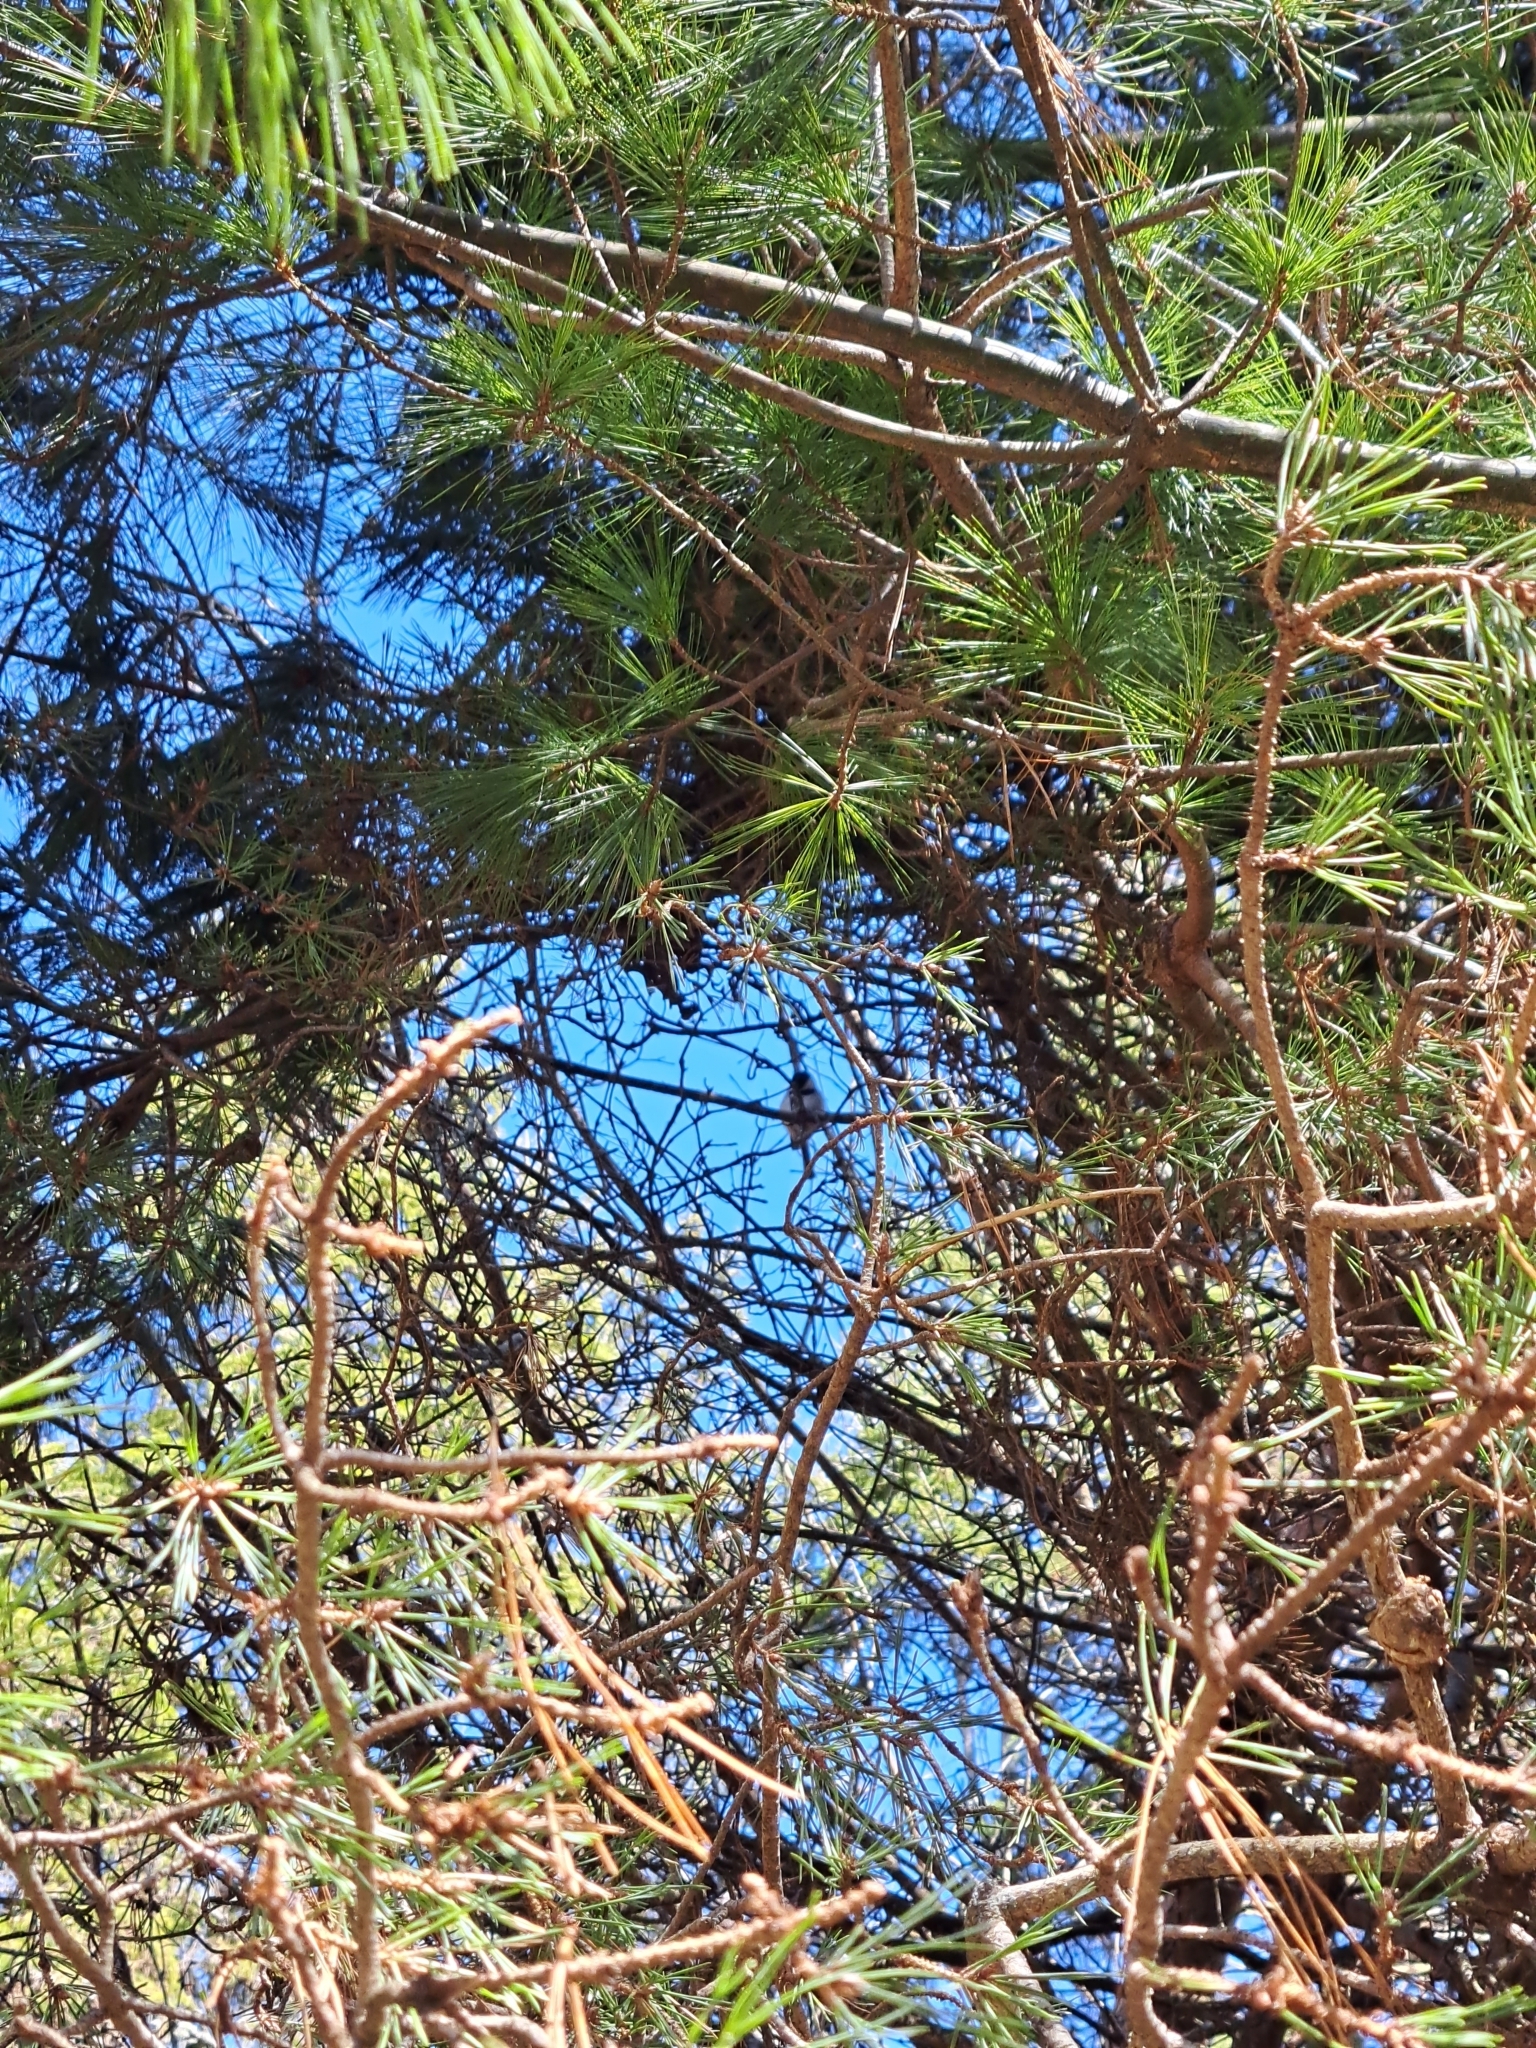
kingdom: Animalia
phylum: Chordata
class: Aves
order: Passeriformes
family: Paridae
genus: Poecile
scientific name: Poecile atricapillus
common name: Black-capped chickadee
